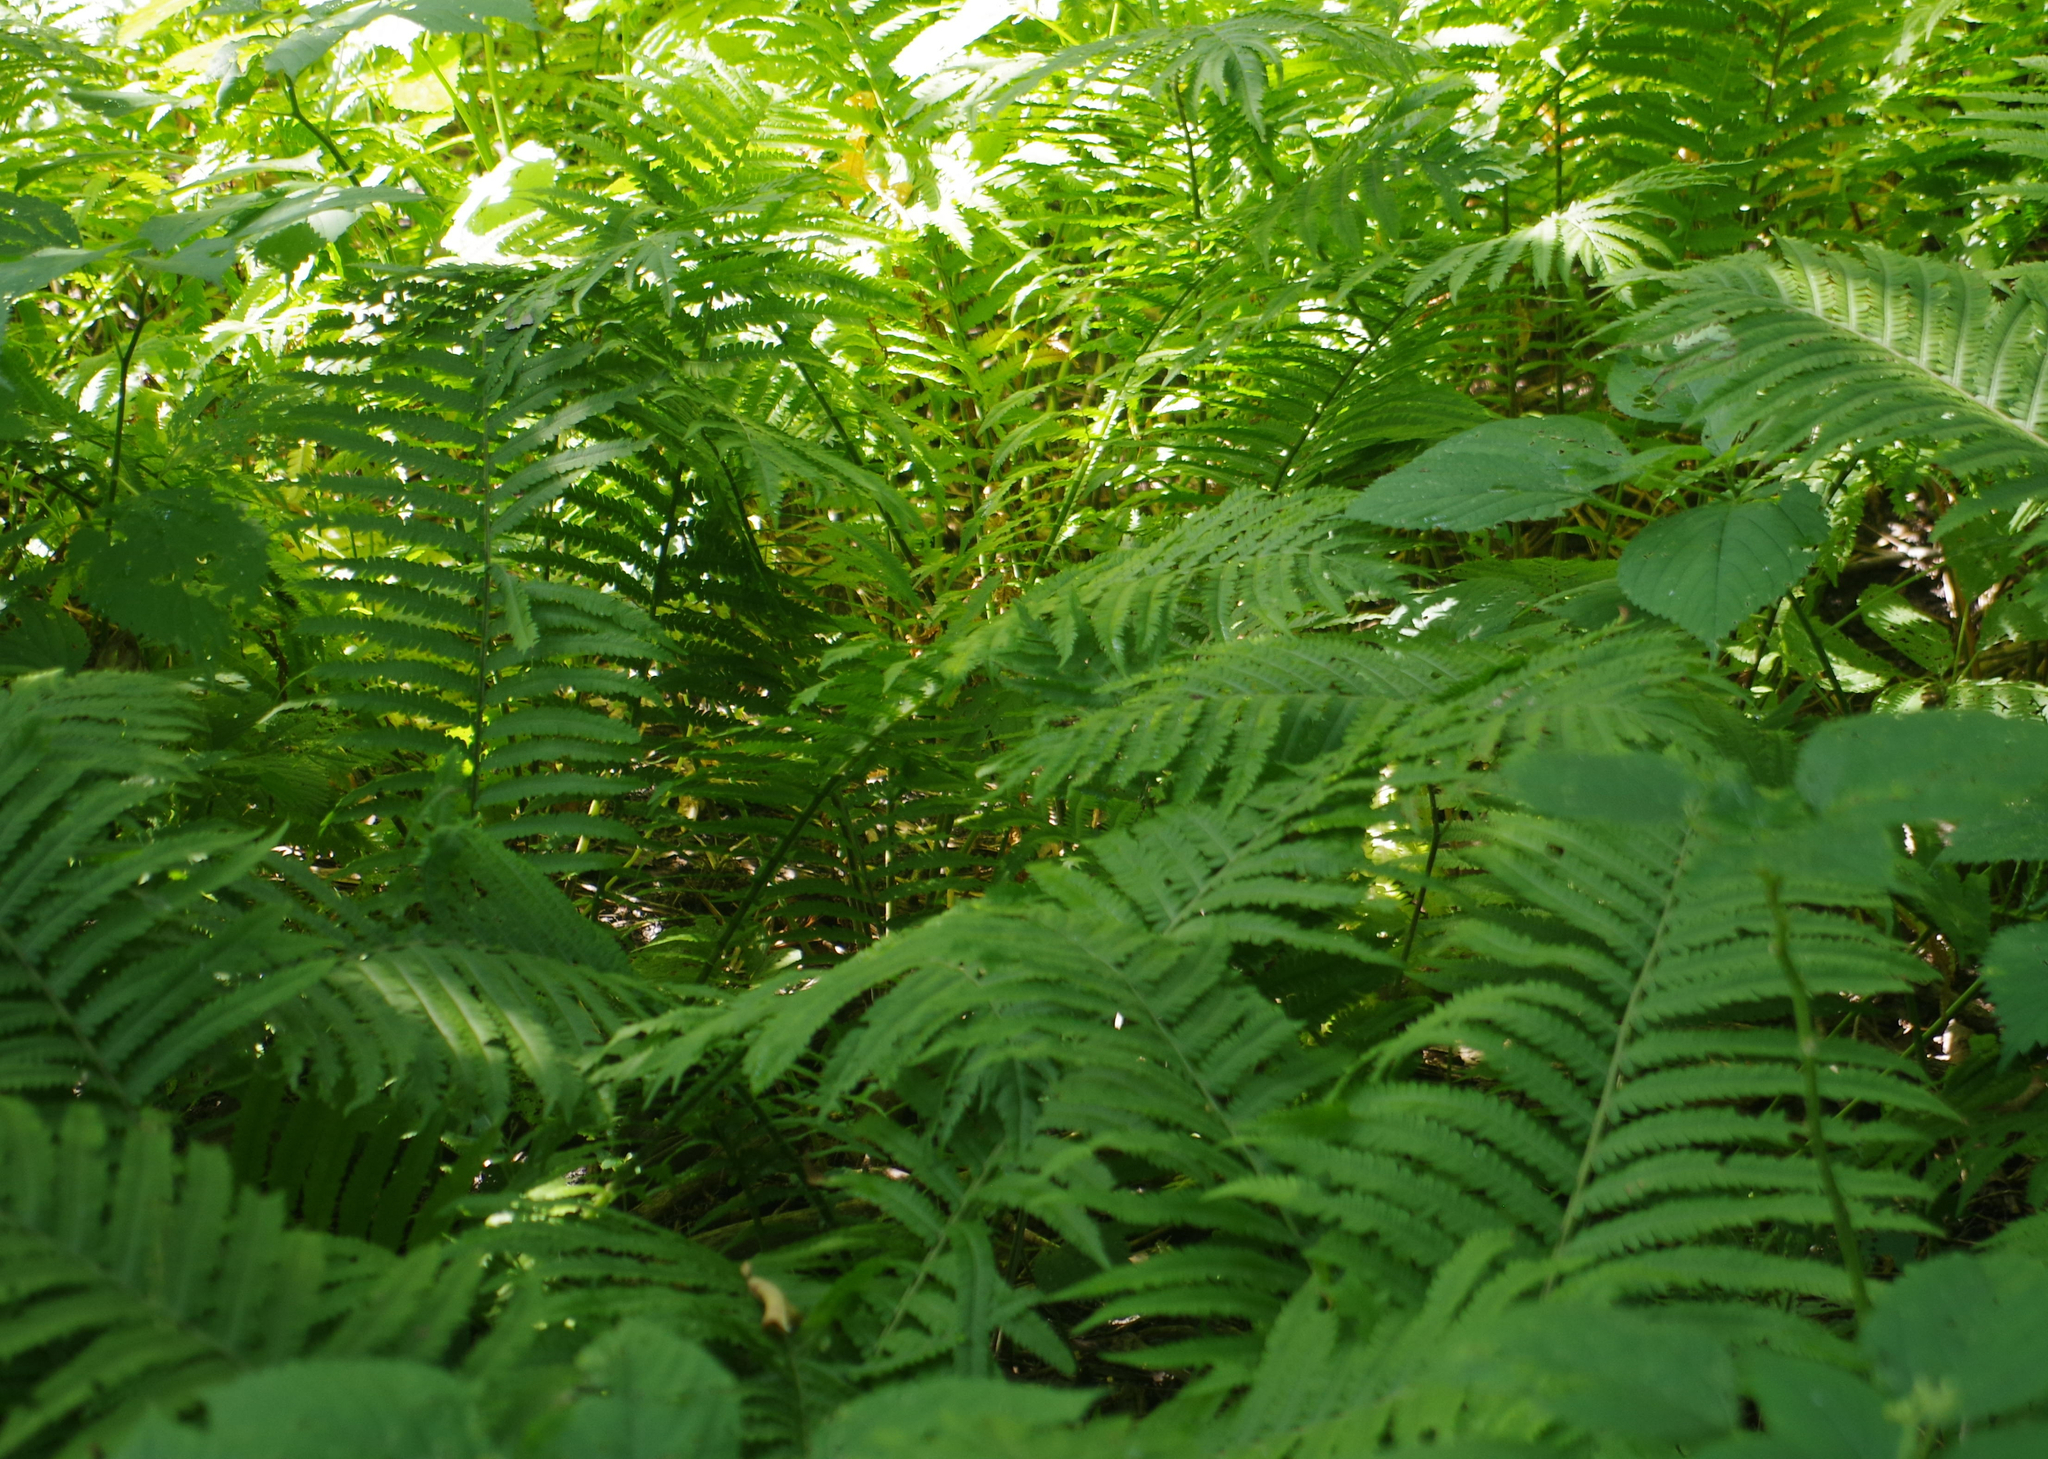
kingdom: Plantae
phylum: Tracheophyta
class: Polypodiopsida
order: Polypodiales
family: Onocleaceae
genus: Matteuccia
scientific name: Matteuccia struthiopteris
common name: Ostrich fern
